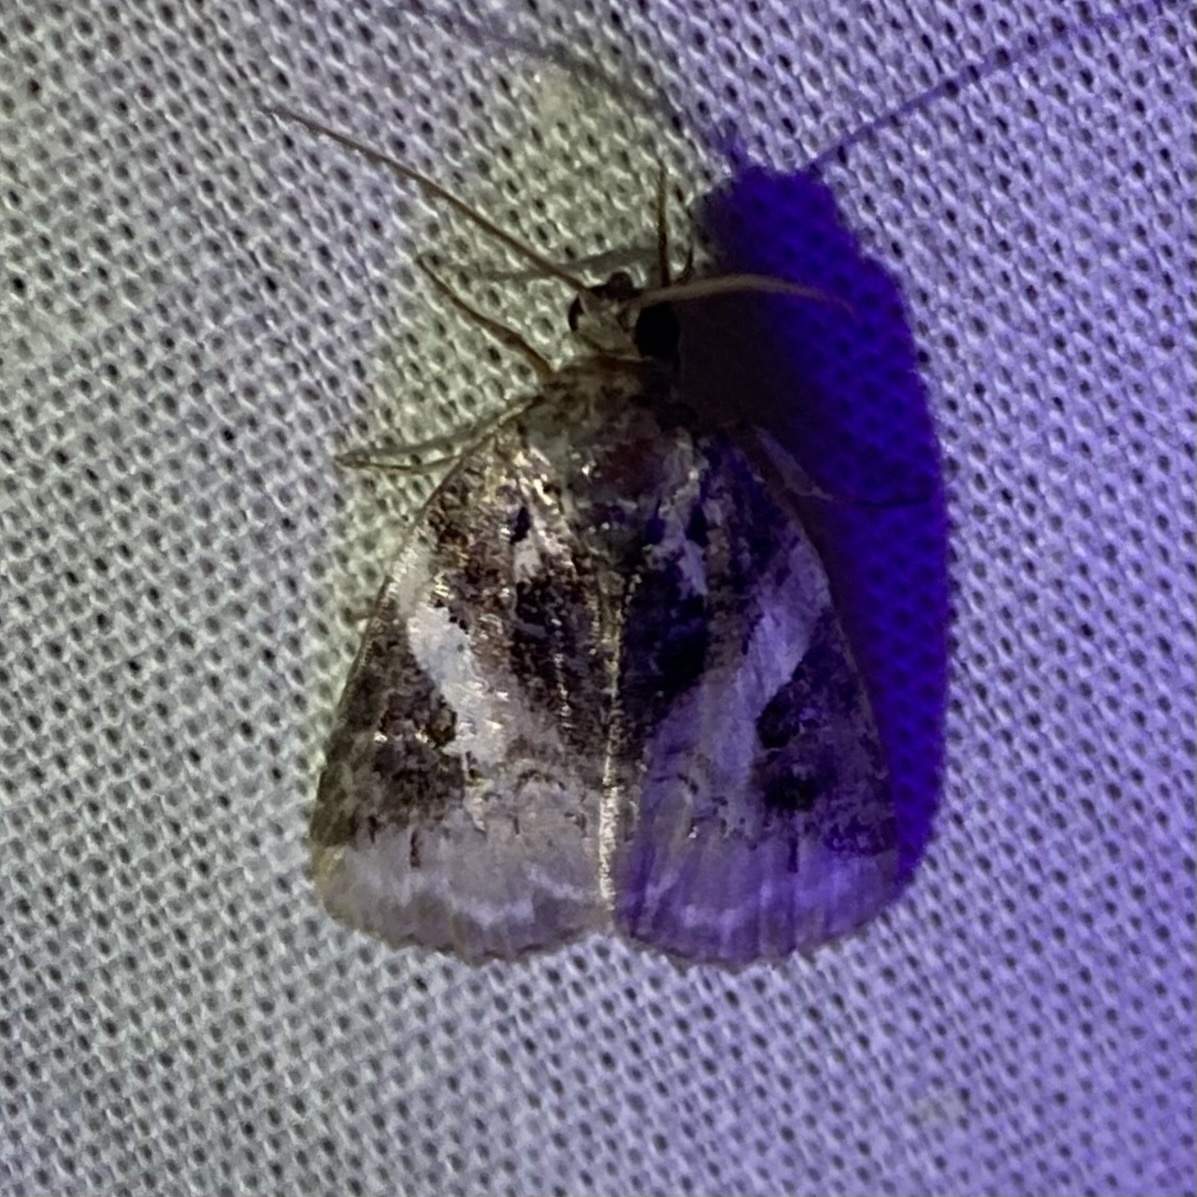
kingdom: Animalia
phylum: Arthropoda
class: Insecta
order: Lepidoptera
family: Noctuidae
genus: Pseudeustrotia
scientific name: Pseudeustrotia carneola
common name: Pink-barred lithacodia moth
